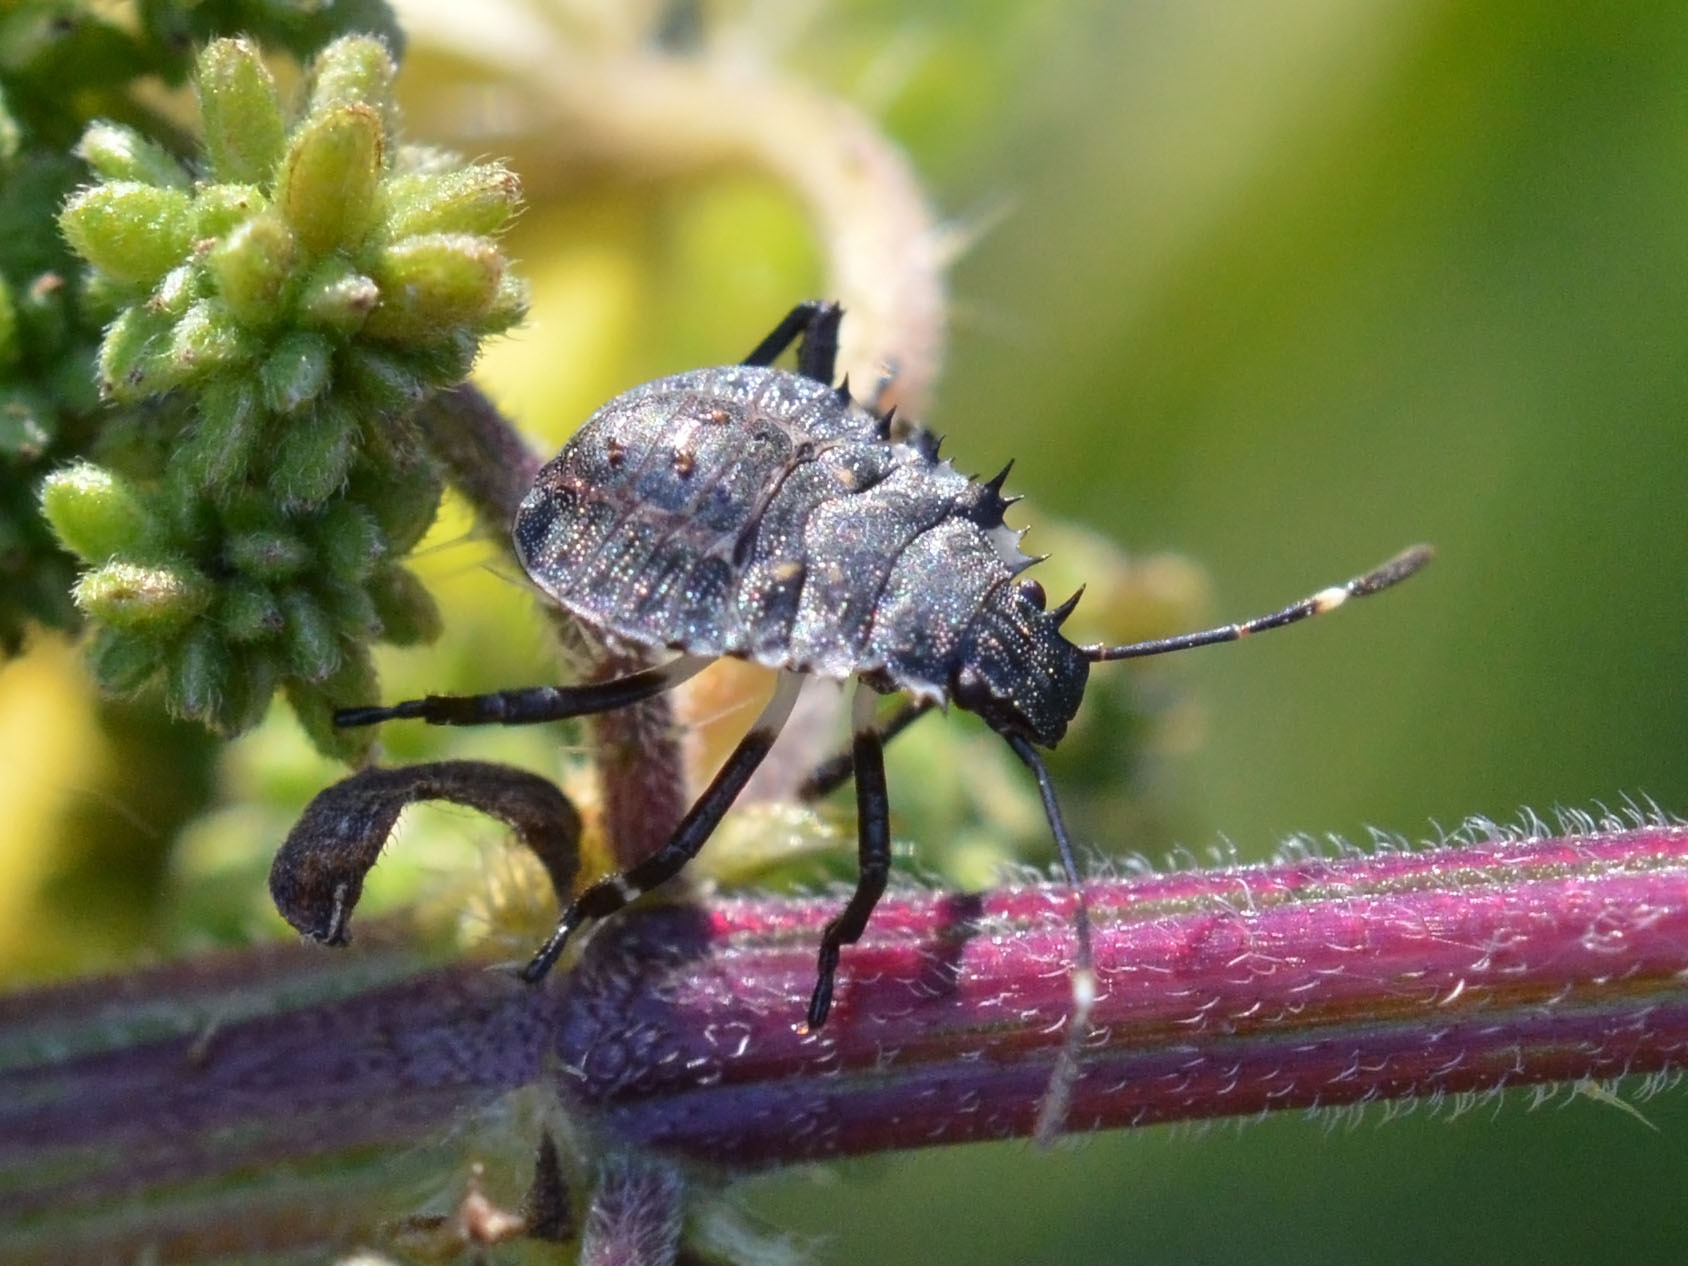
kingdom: Animalia
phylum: Arthropoda
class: Insecta
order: Hemiptera
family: Pentatomidae
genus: Halyomorpha
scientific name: Halyomorpha halys
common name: Brown marmorated stink bug
